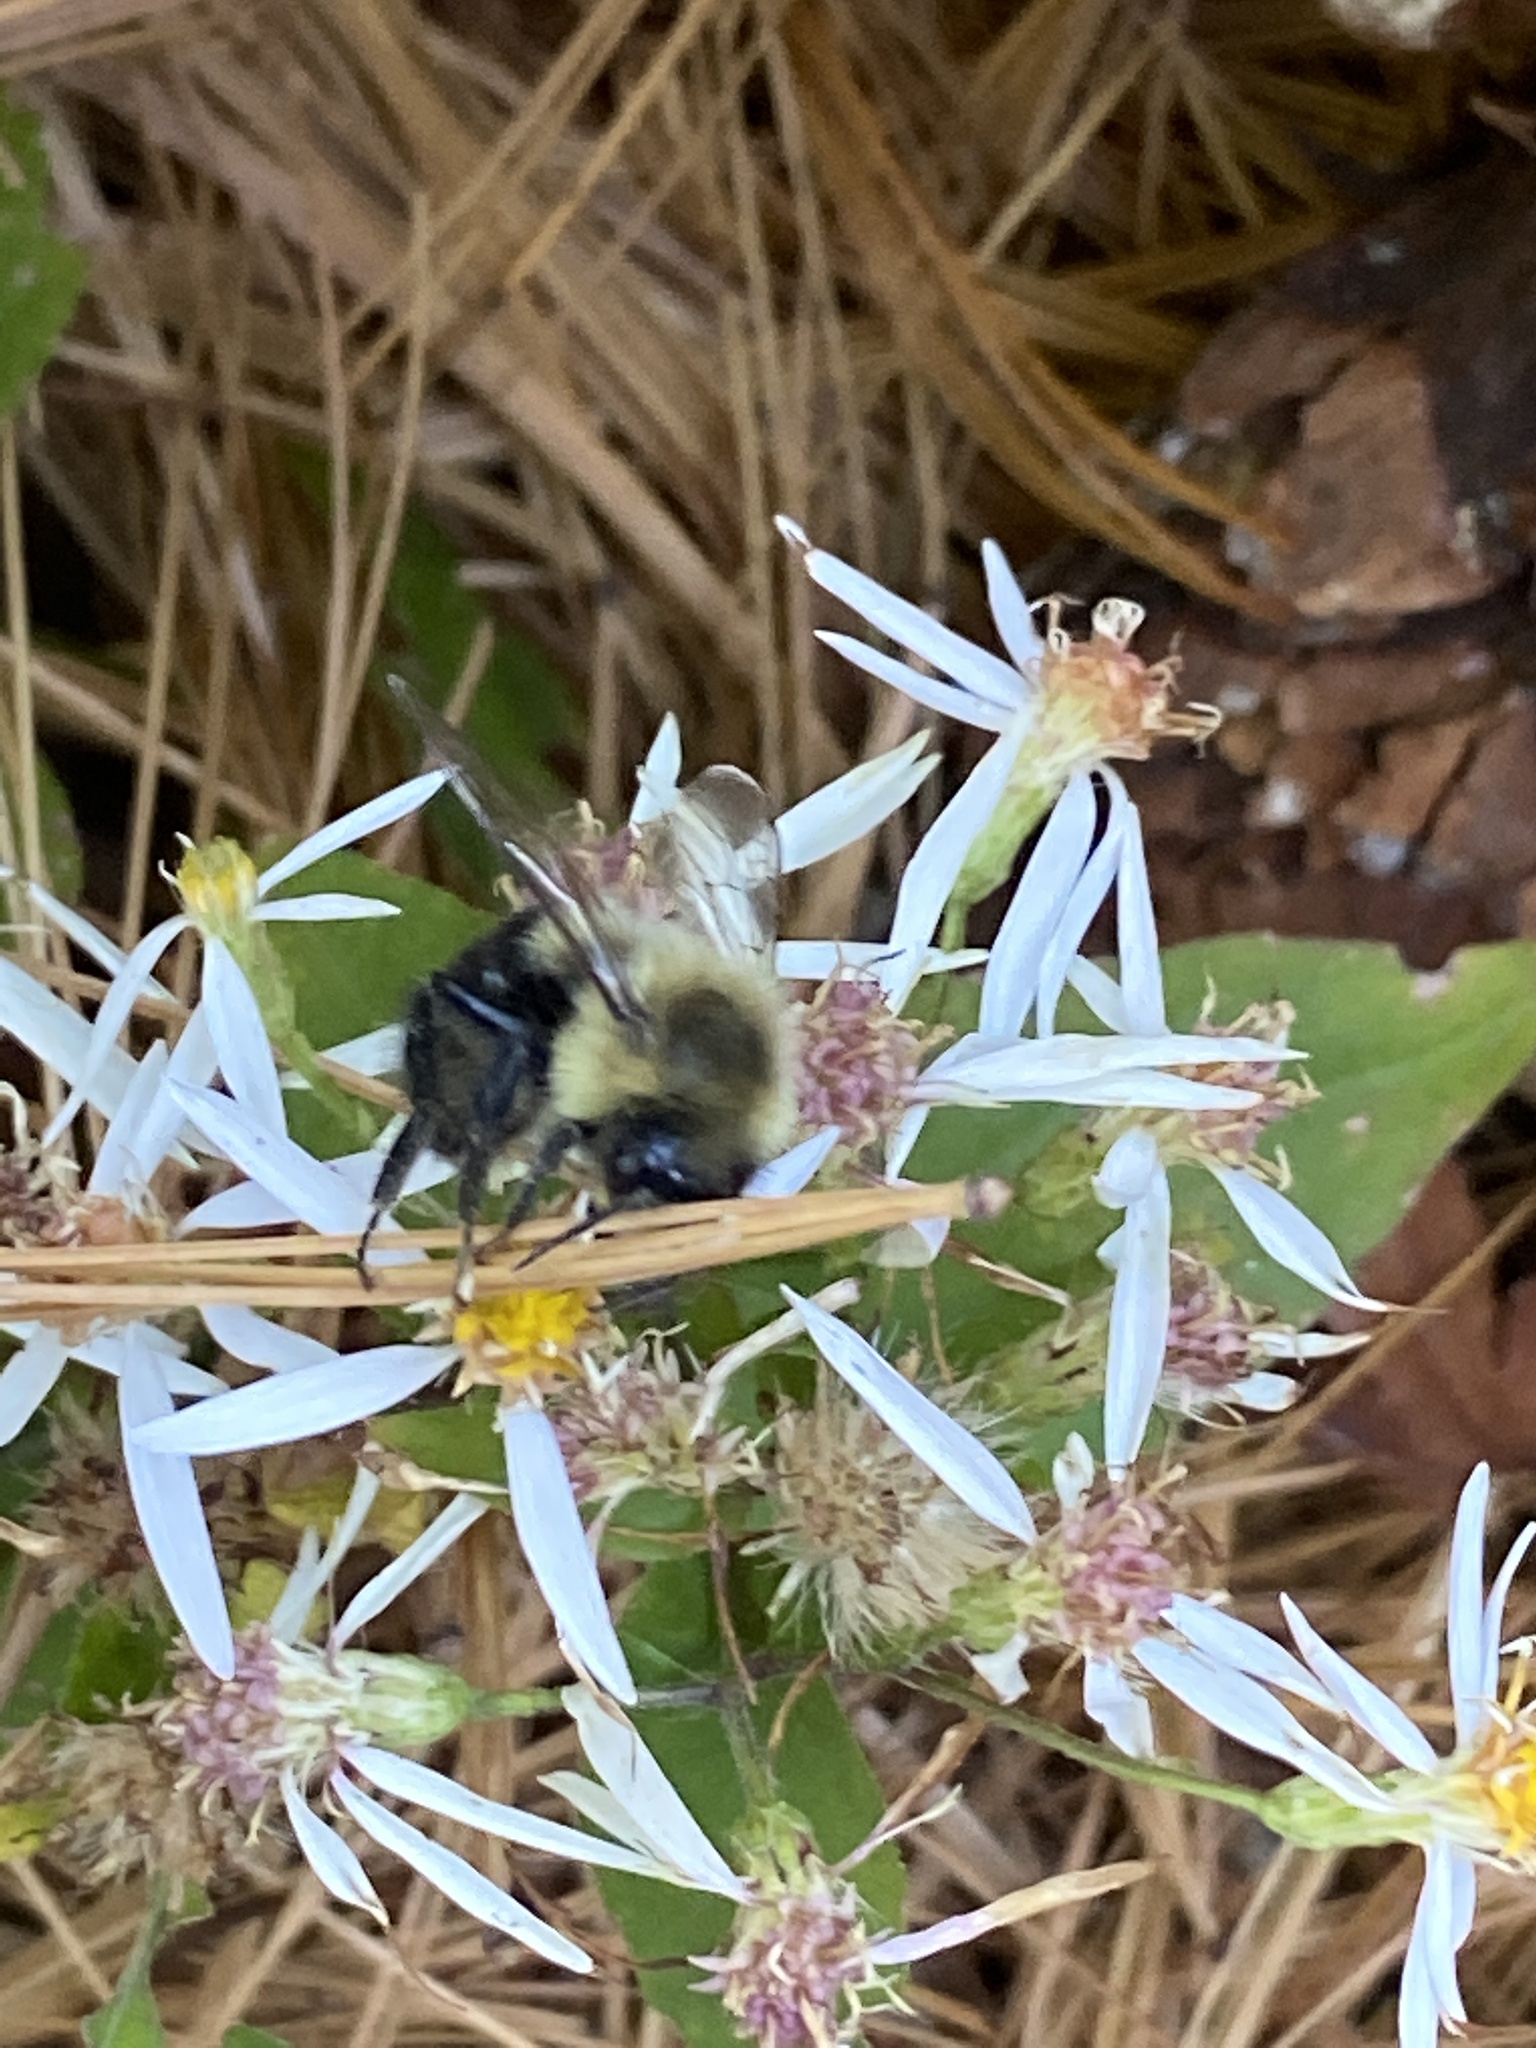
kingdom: Animalia
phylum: Arthropoda
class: Insecta
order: Hymenoptera
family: Apidae
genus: Bombus
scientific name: Bombus impatiens
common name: Common eastern bumble bee
